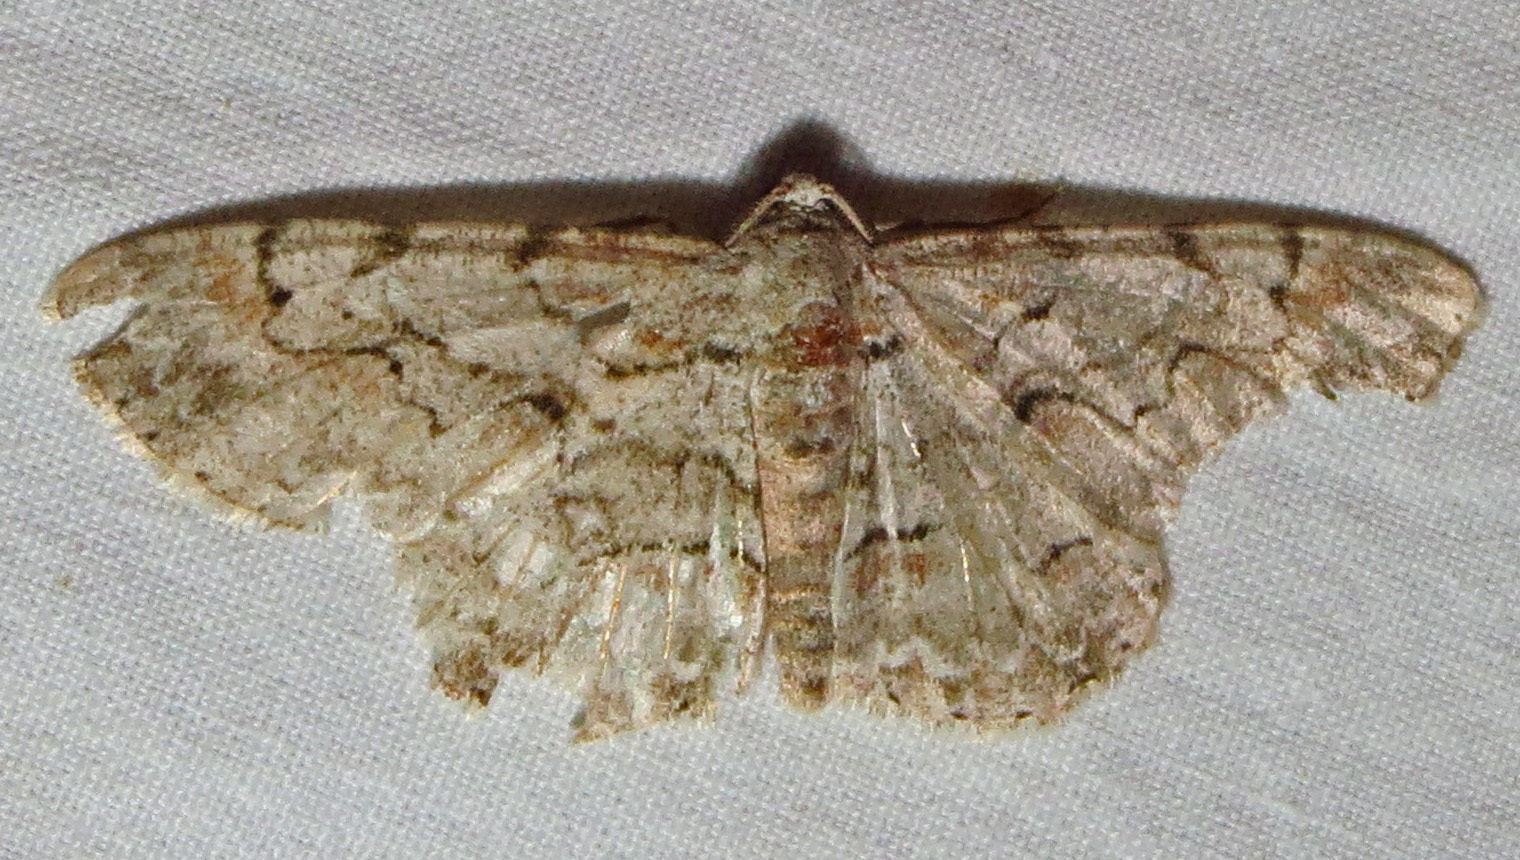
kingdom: Animalia
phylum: Arthropoda
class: Insecta
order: Lepidoptera
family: Geometridae
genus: Iridopsis
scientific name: Iridopsis defectaria
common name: Brown-shaded gray
